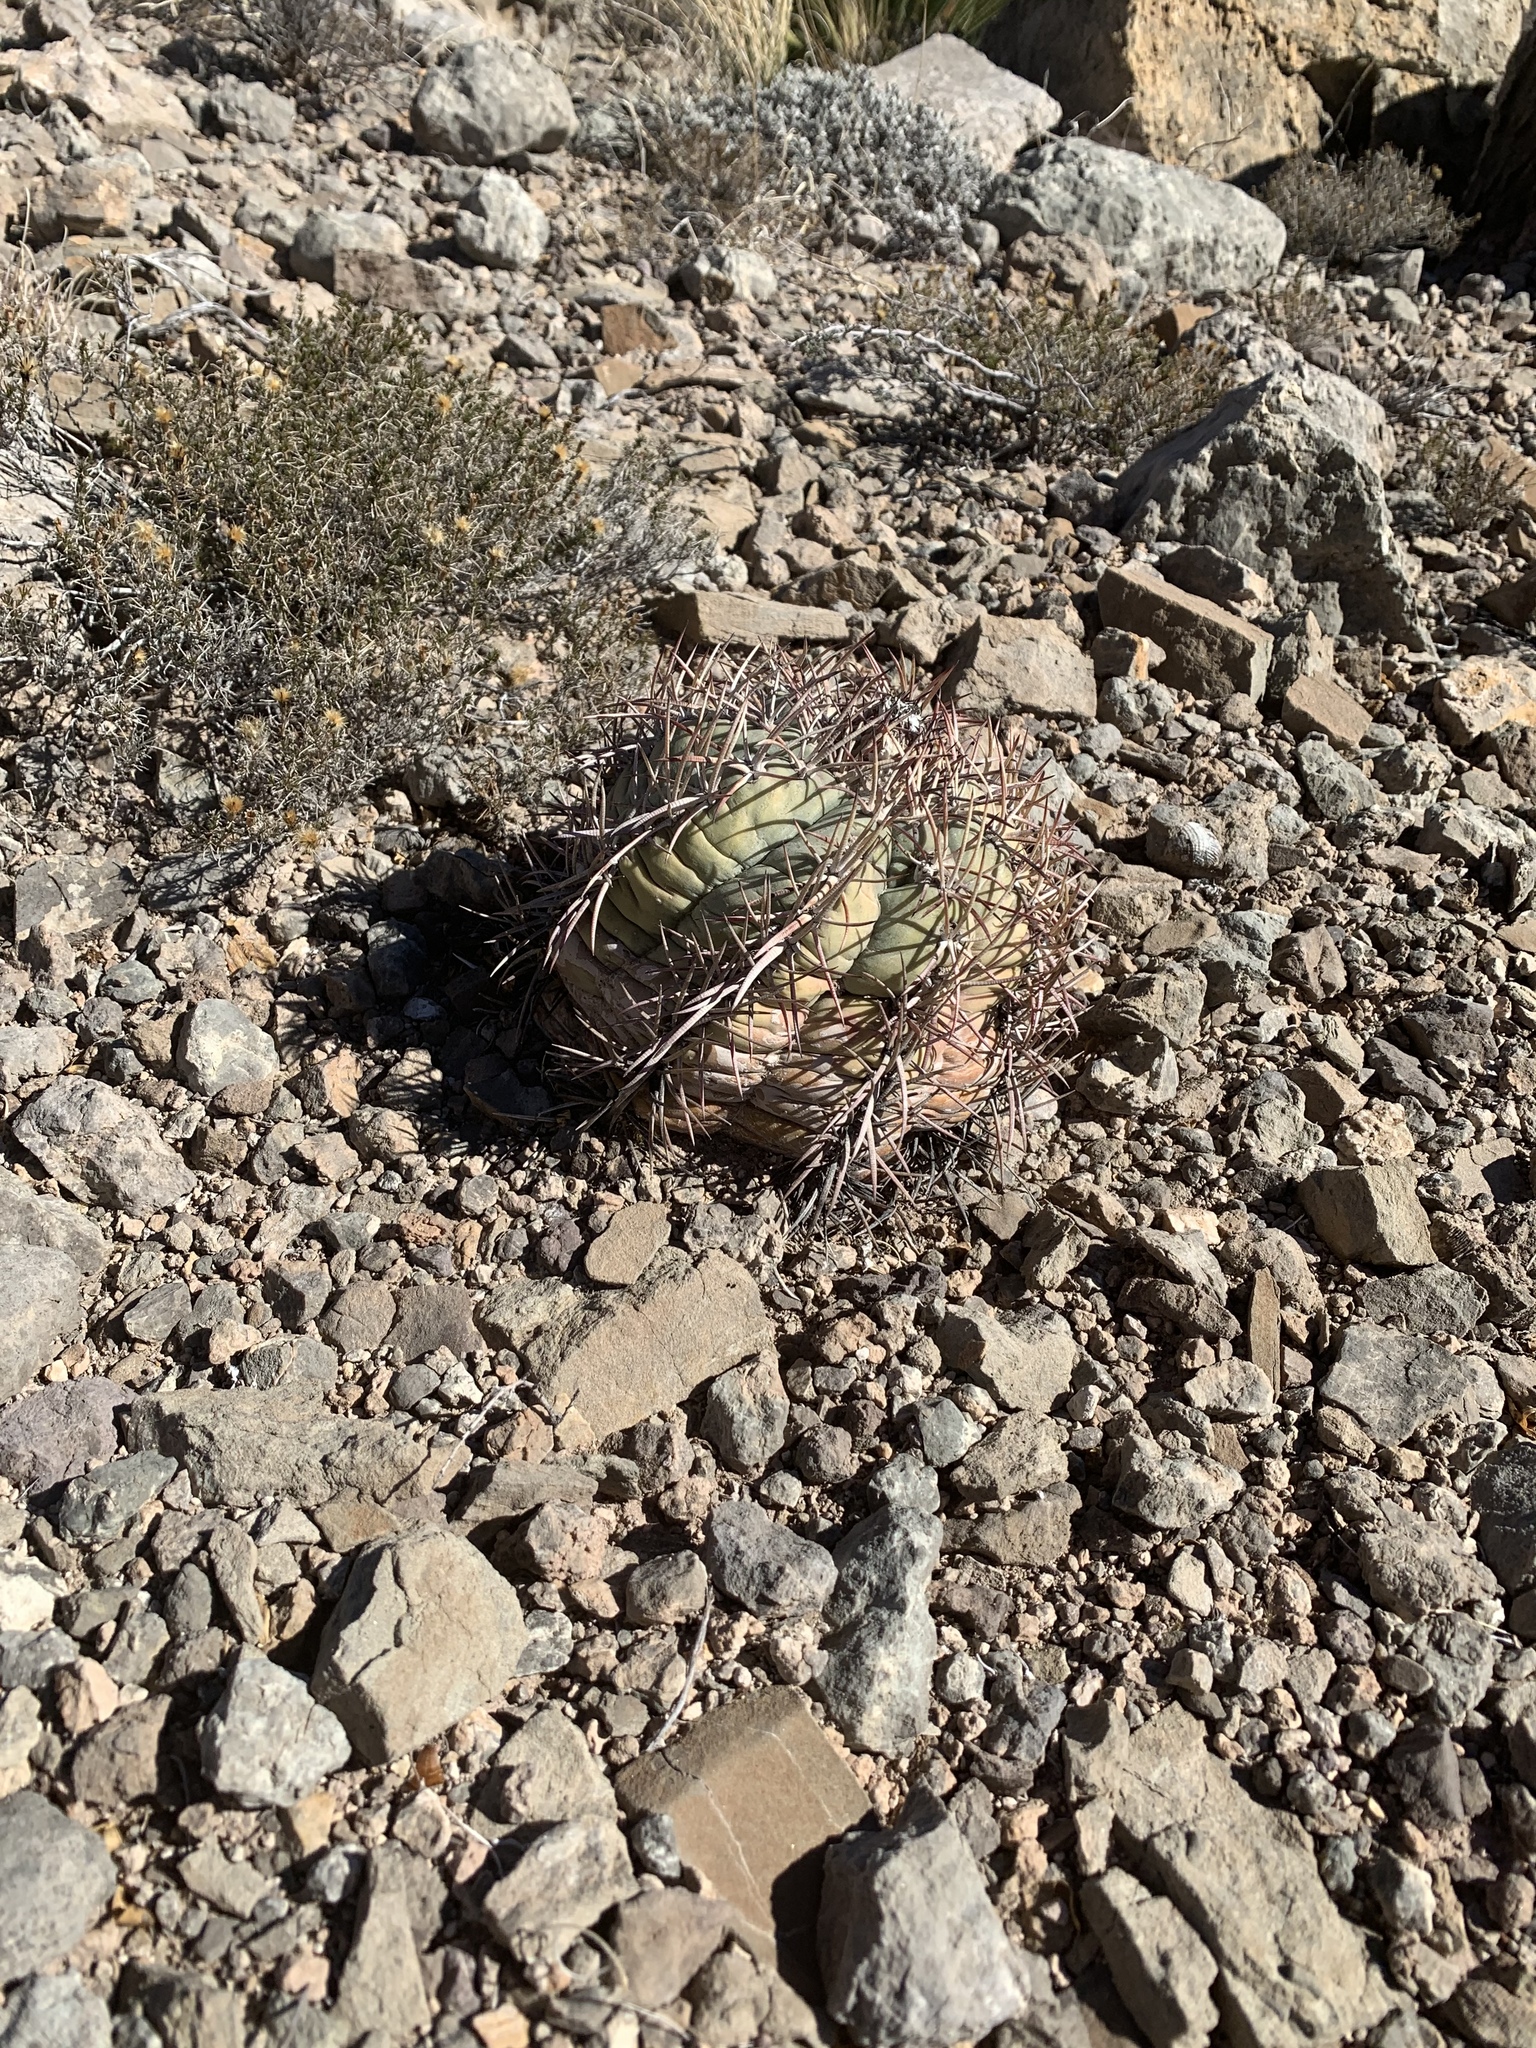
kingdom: Plantae
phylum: Tracheophyta
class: Magnoliopsida
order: Caryophyllales
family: Cactaceae
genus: Echinocactus
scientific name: Echinocactus horizonthalonius
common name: Devilshead
